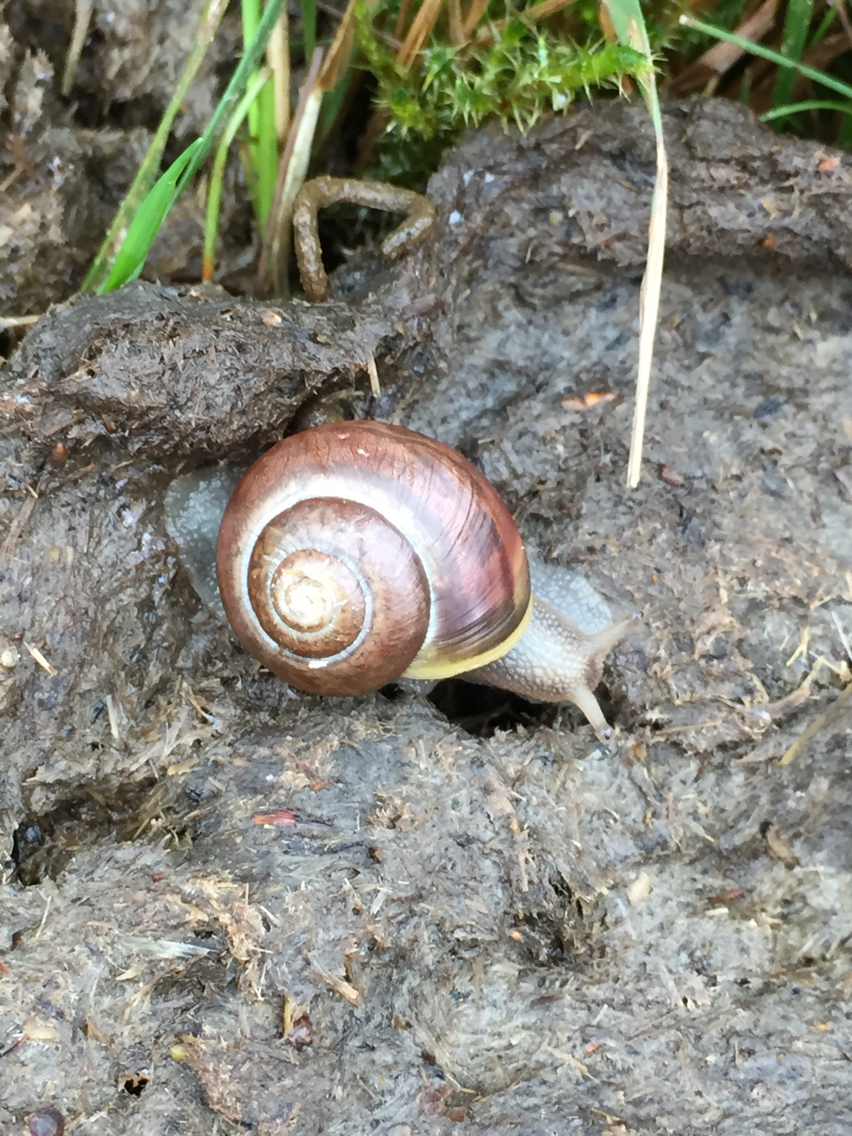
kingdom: Animalia
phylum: Mollusca
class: Gastropoda
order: Stylommatophora
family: Helicidae
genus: Cepaea
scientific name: Cepaea nemoralis
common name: Grovesnail
